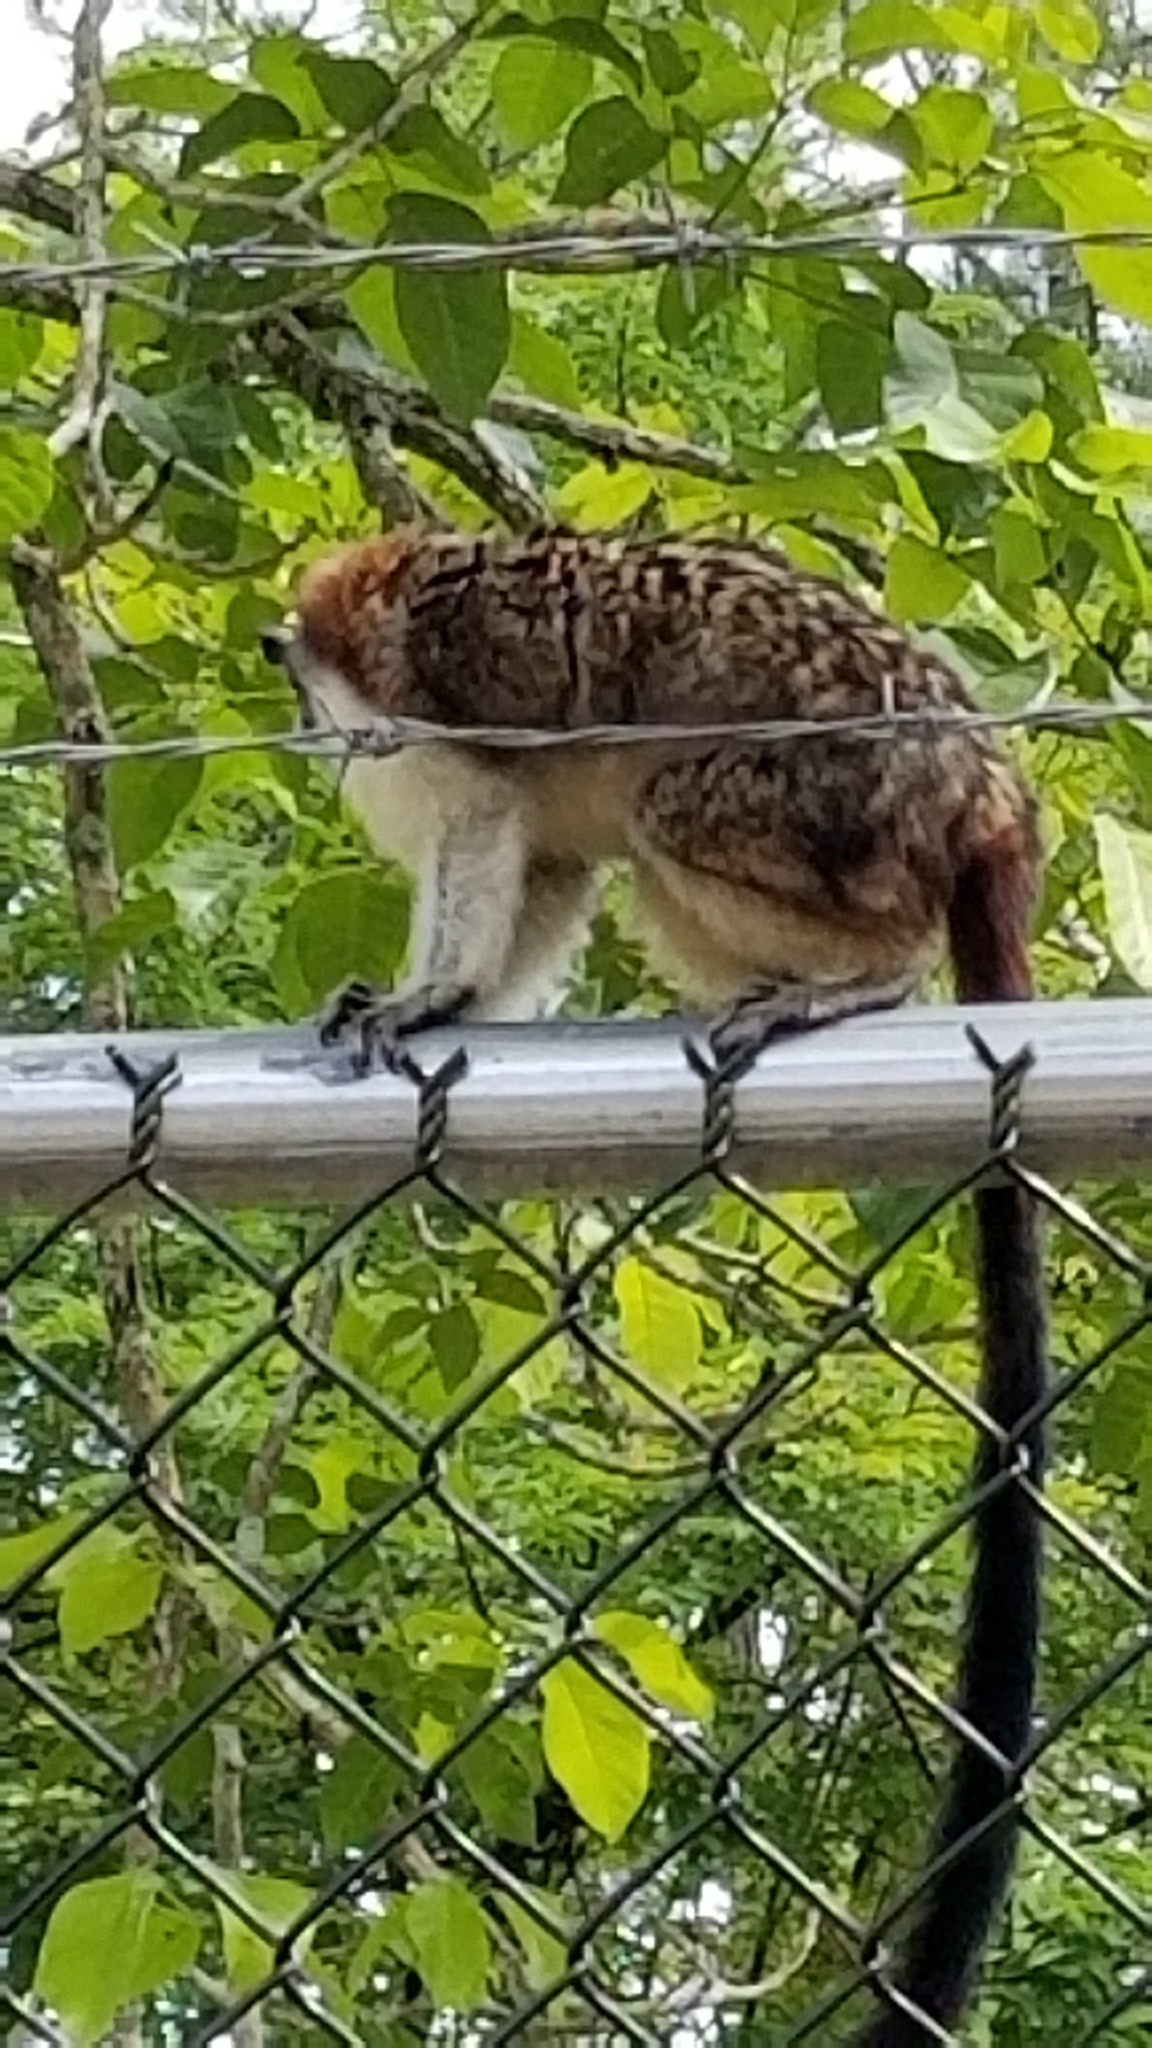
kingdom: Animalia
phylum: Chordata
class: Mammalia
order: Primates
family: Callitrichidae
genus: Saguinus
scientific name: Saguinus geoffroyi
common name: Geoffroy s tamarin
